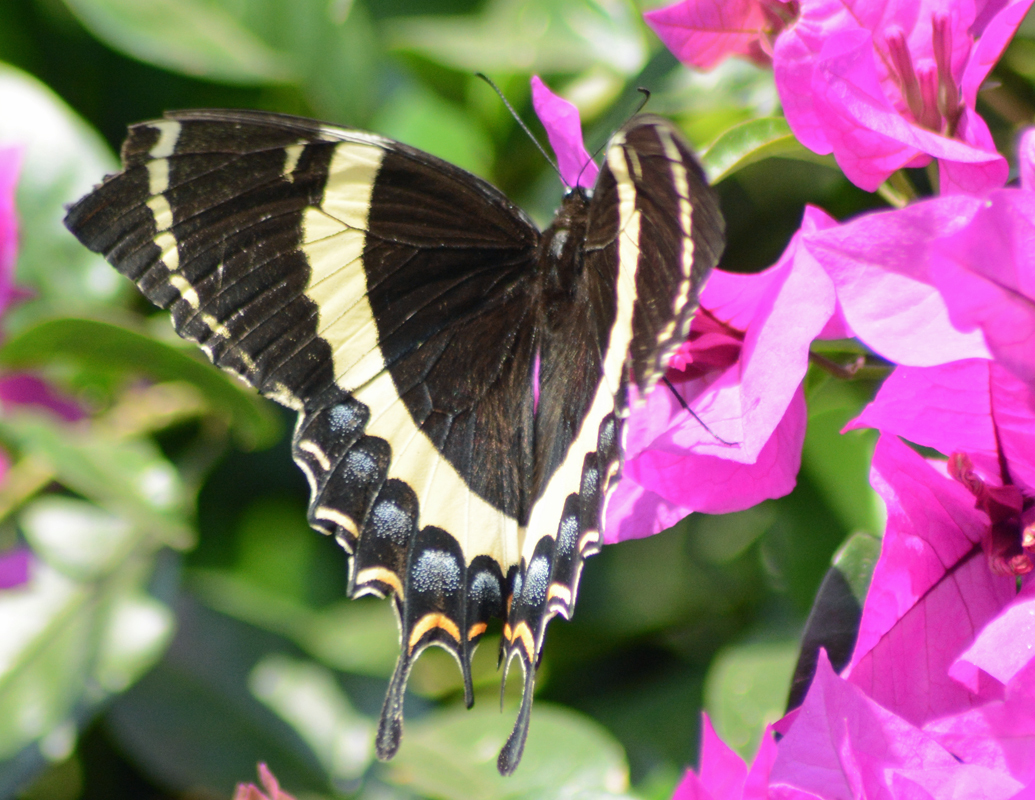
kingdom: Animalia
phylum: Arthropoda
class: Insecta
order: Lepidoptera
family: Papilionidae
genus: Papilio
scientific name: Papilio garamas
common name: Magnificent swallowtail
